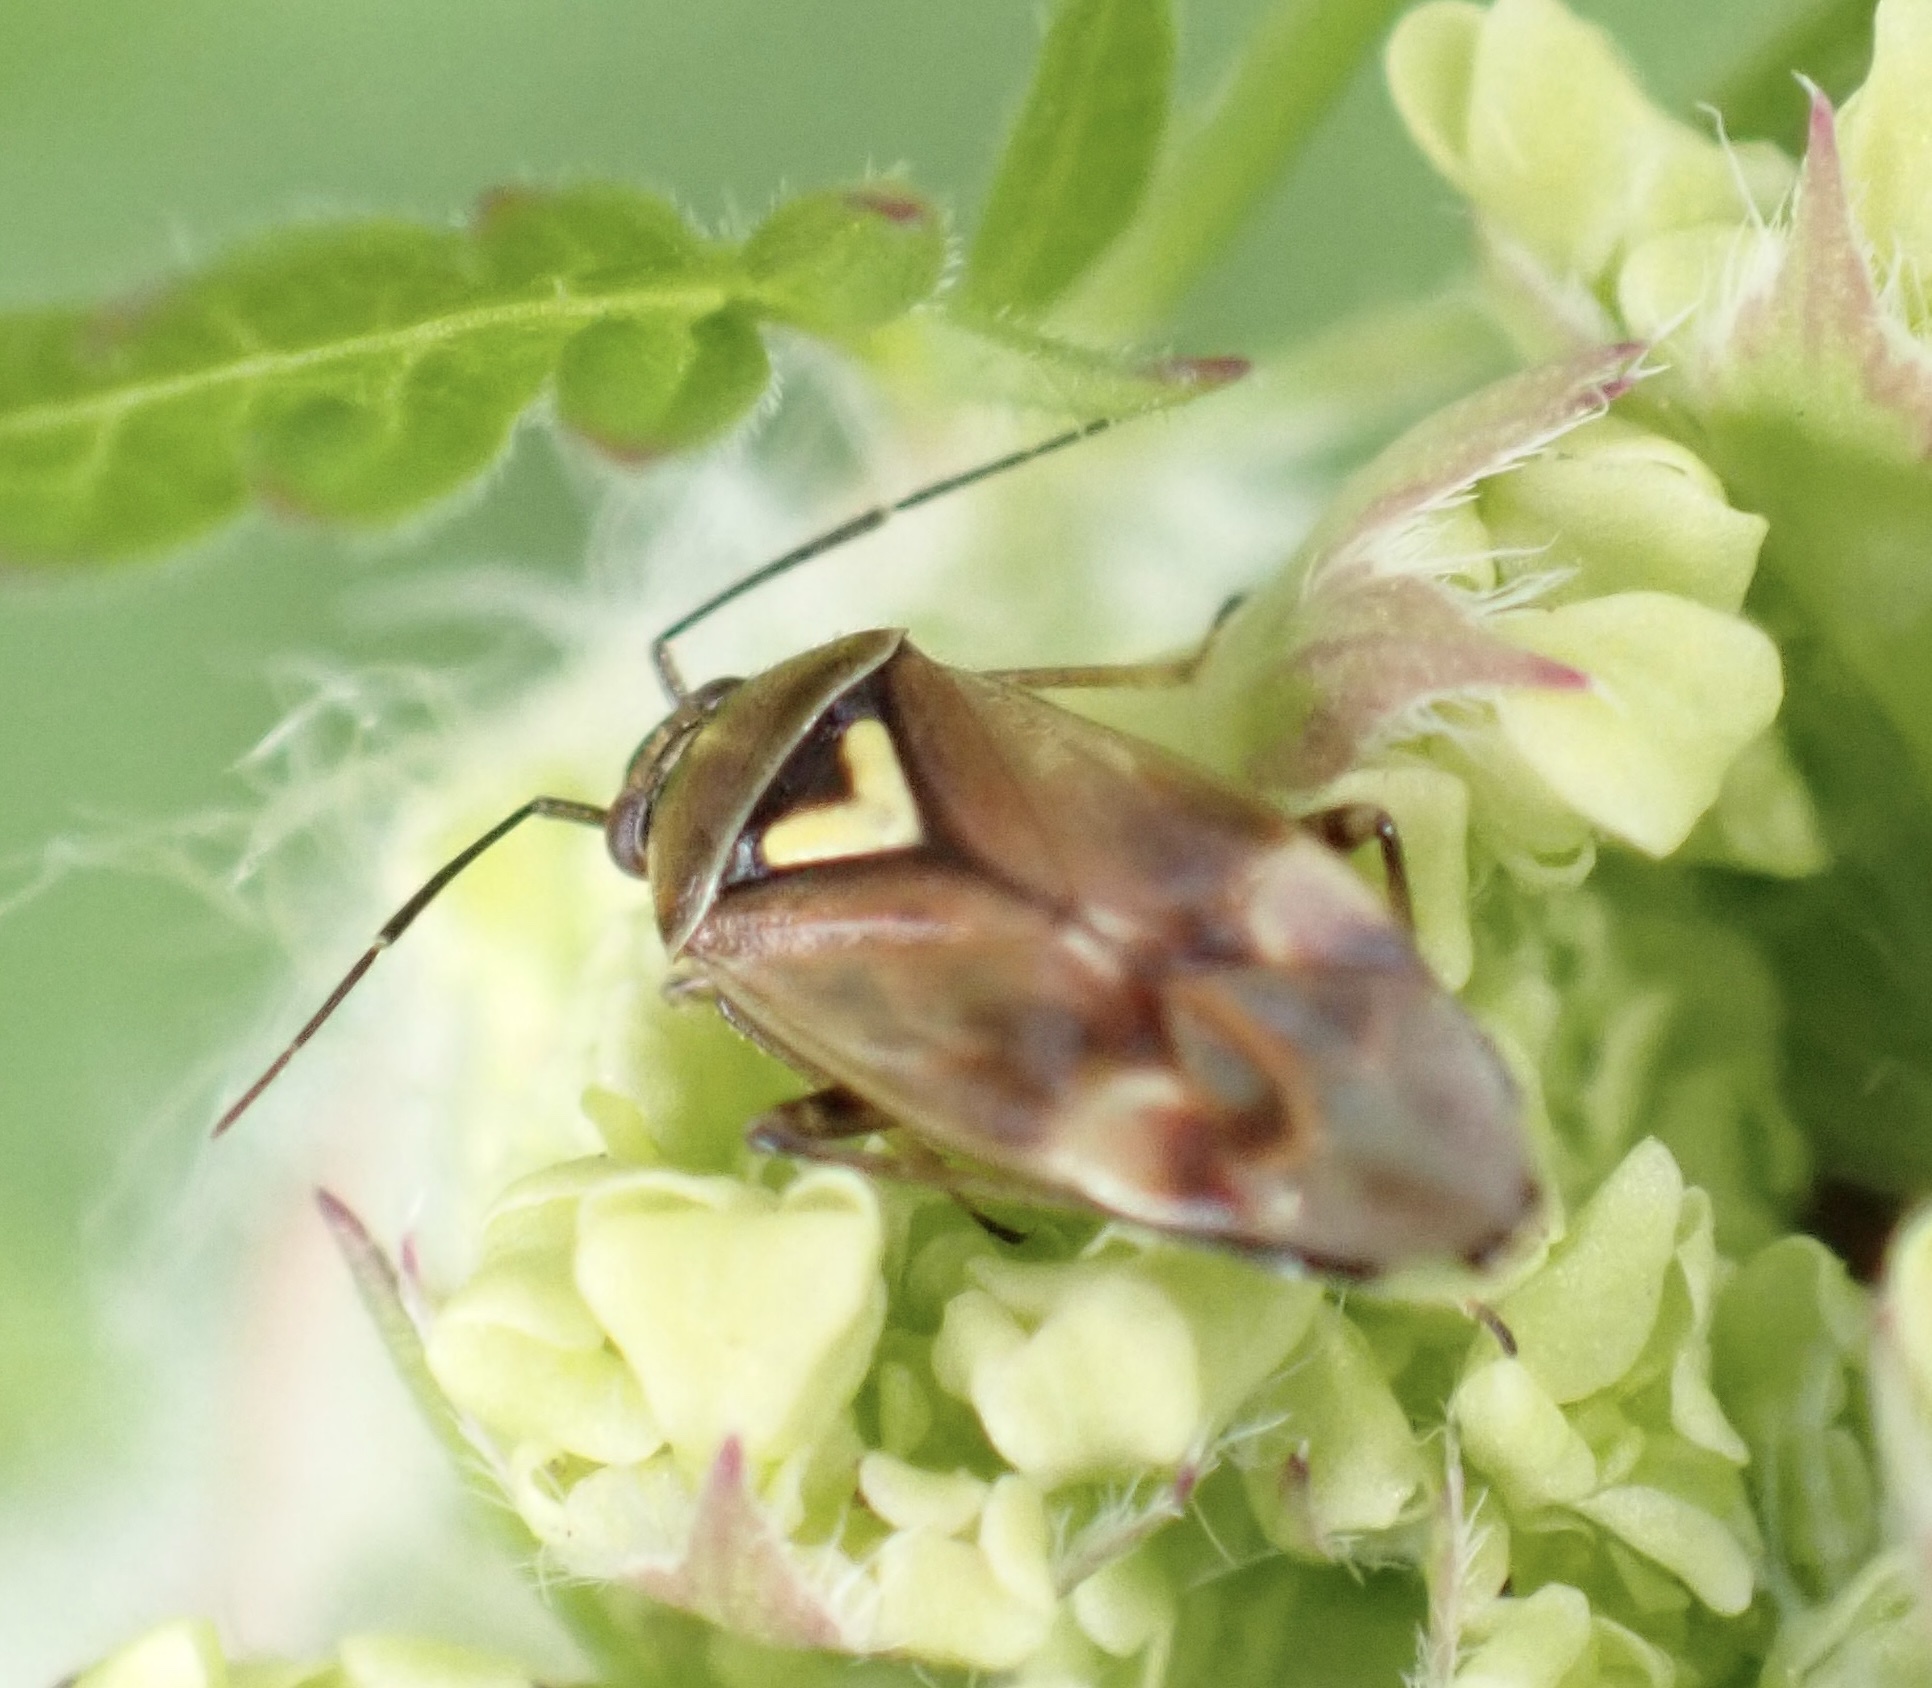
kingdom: Animalia
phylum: Arthropoda
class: Insecta
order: Hemiptera
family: Miridae
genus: Orthops
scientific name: Orthops basalis
